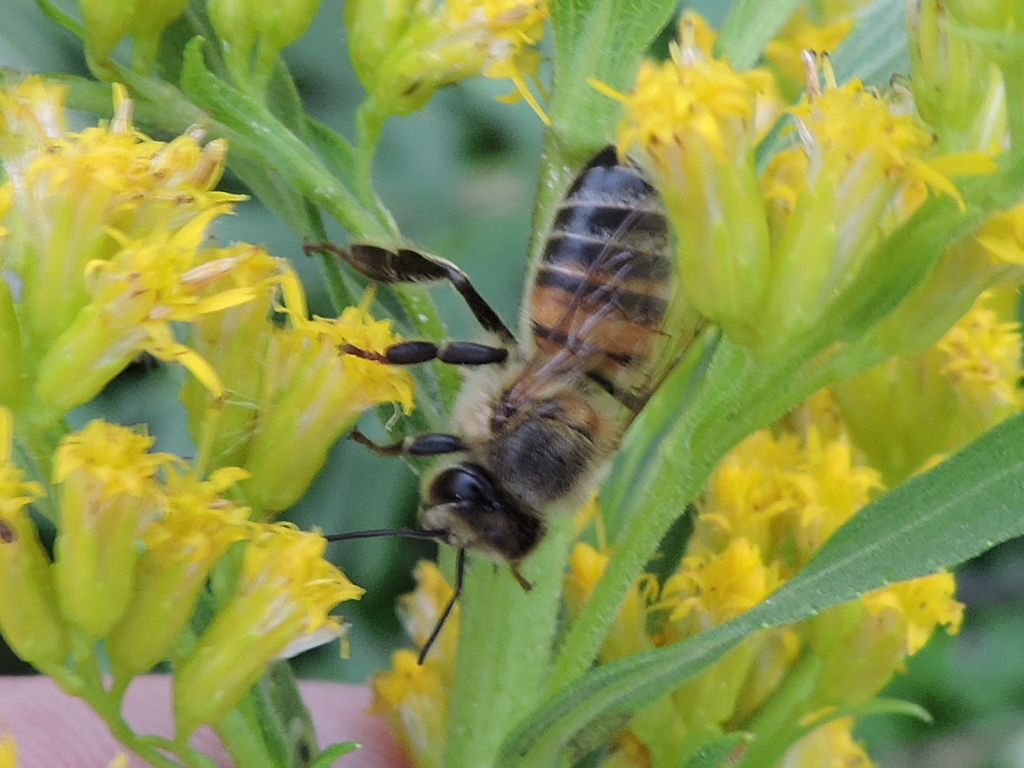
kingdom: Animalia
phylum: Arthropoda
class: Insecta
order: Hymenoptera
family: Apidae
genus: Apis
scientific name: Apis mellifera
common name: Honey bee
